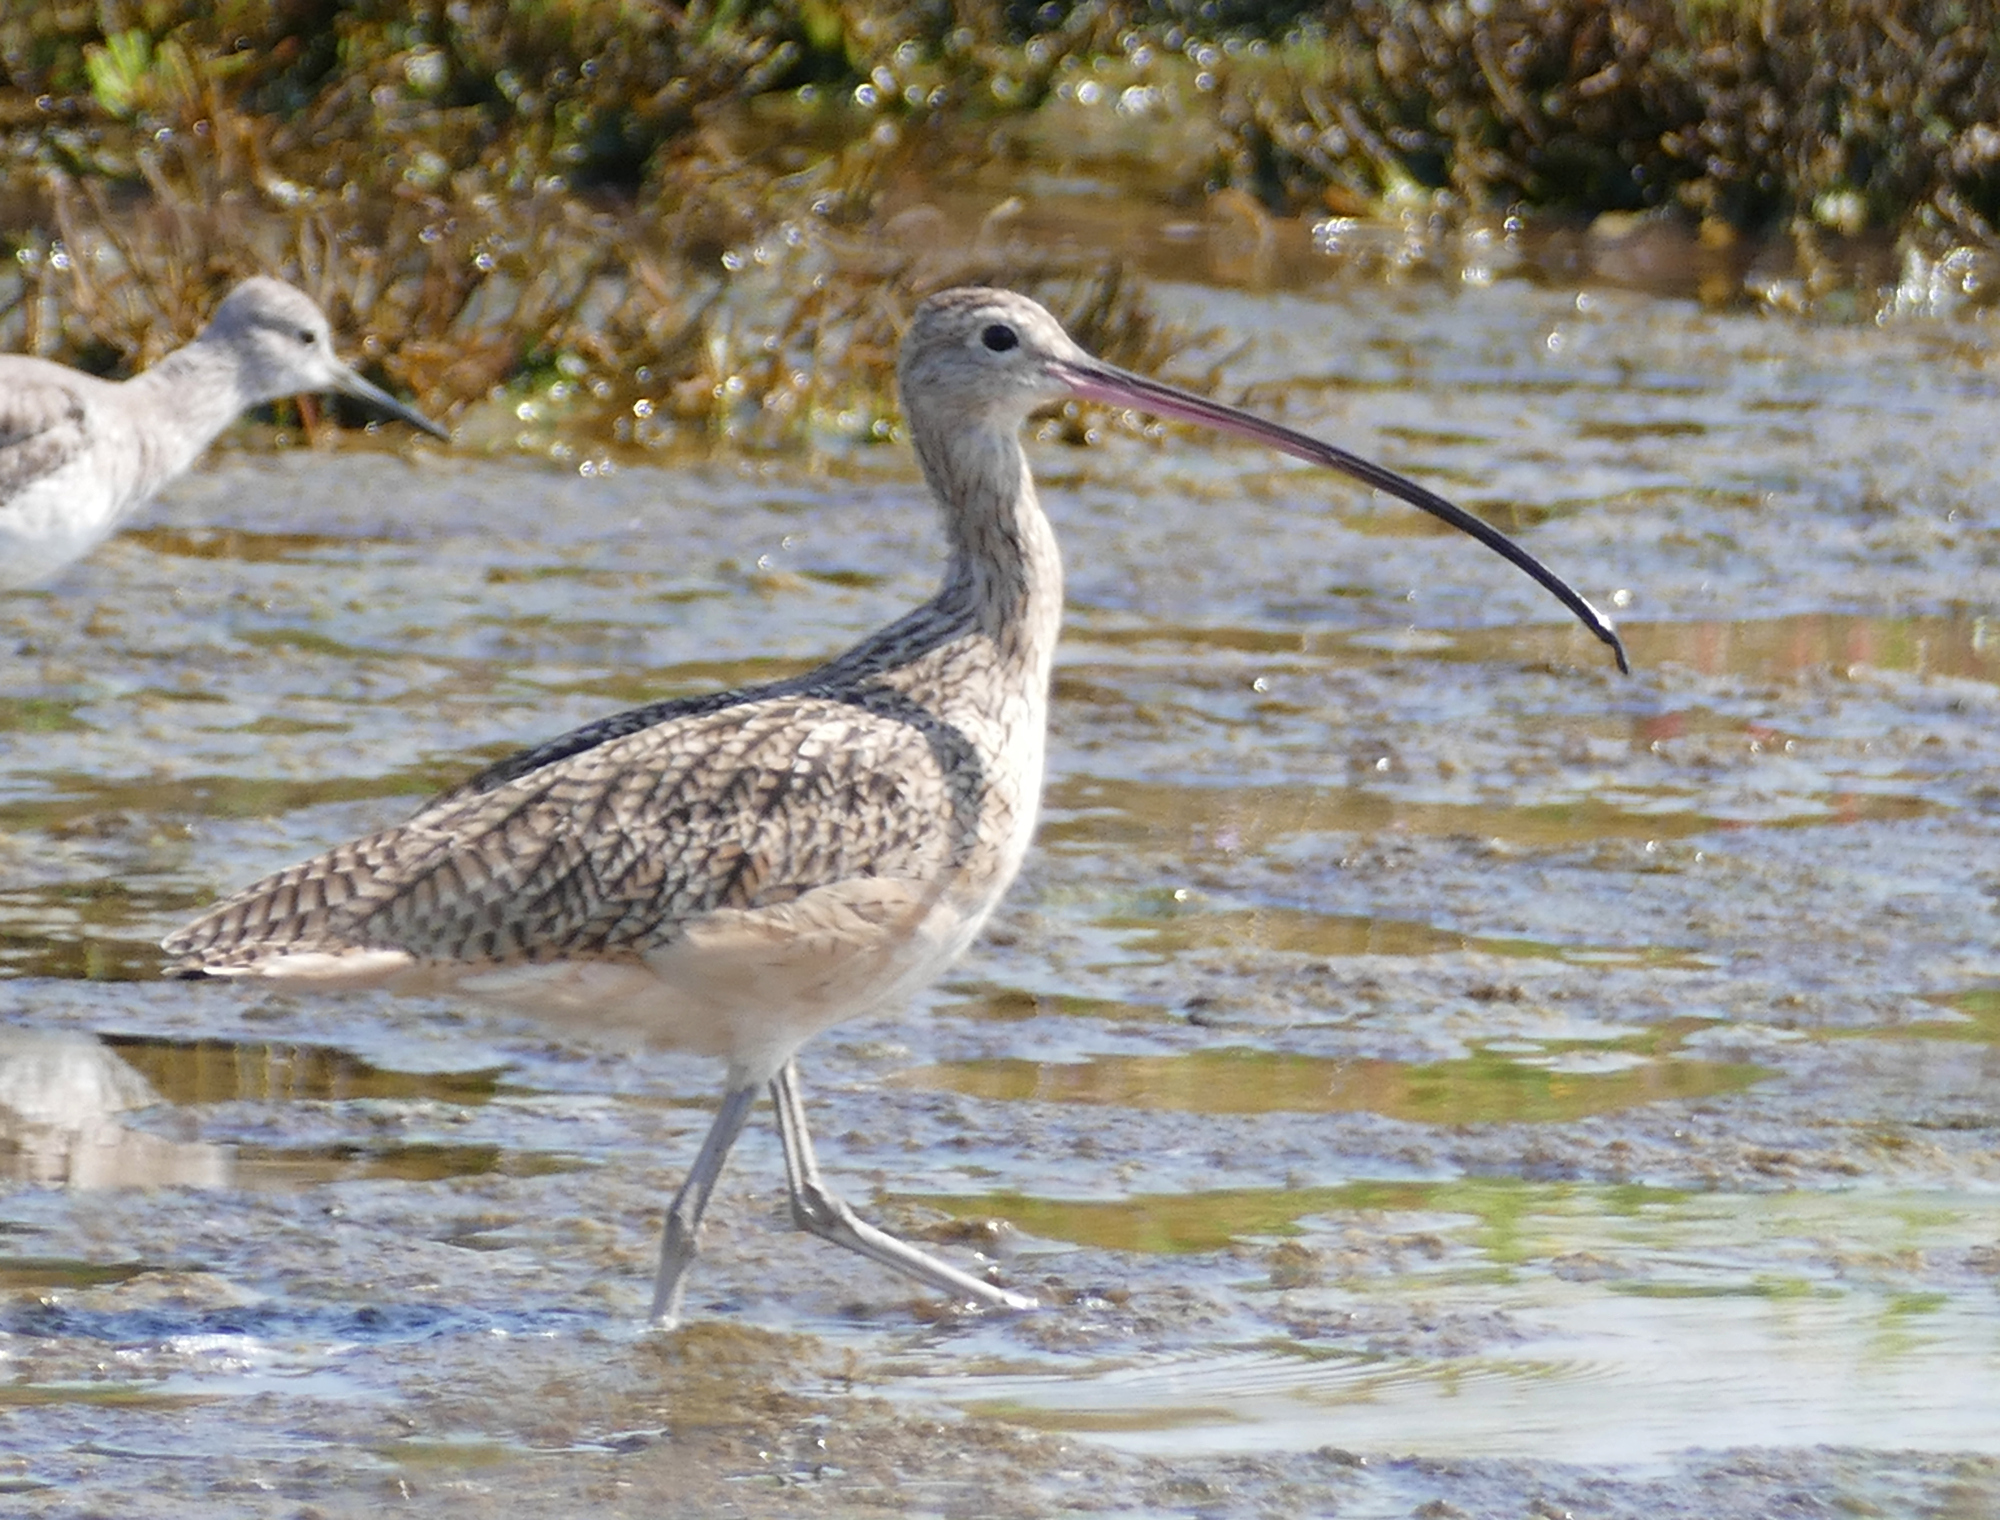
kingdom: Animalia
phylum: Chordata
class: Aves
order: Charadriiformes
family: Scolopacidae
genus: Numenius
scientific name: Numenius americanus
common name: Long-billed curlew
